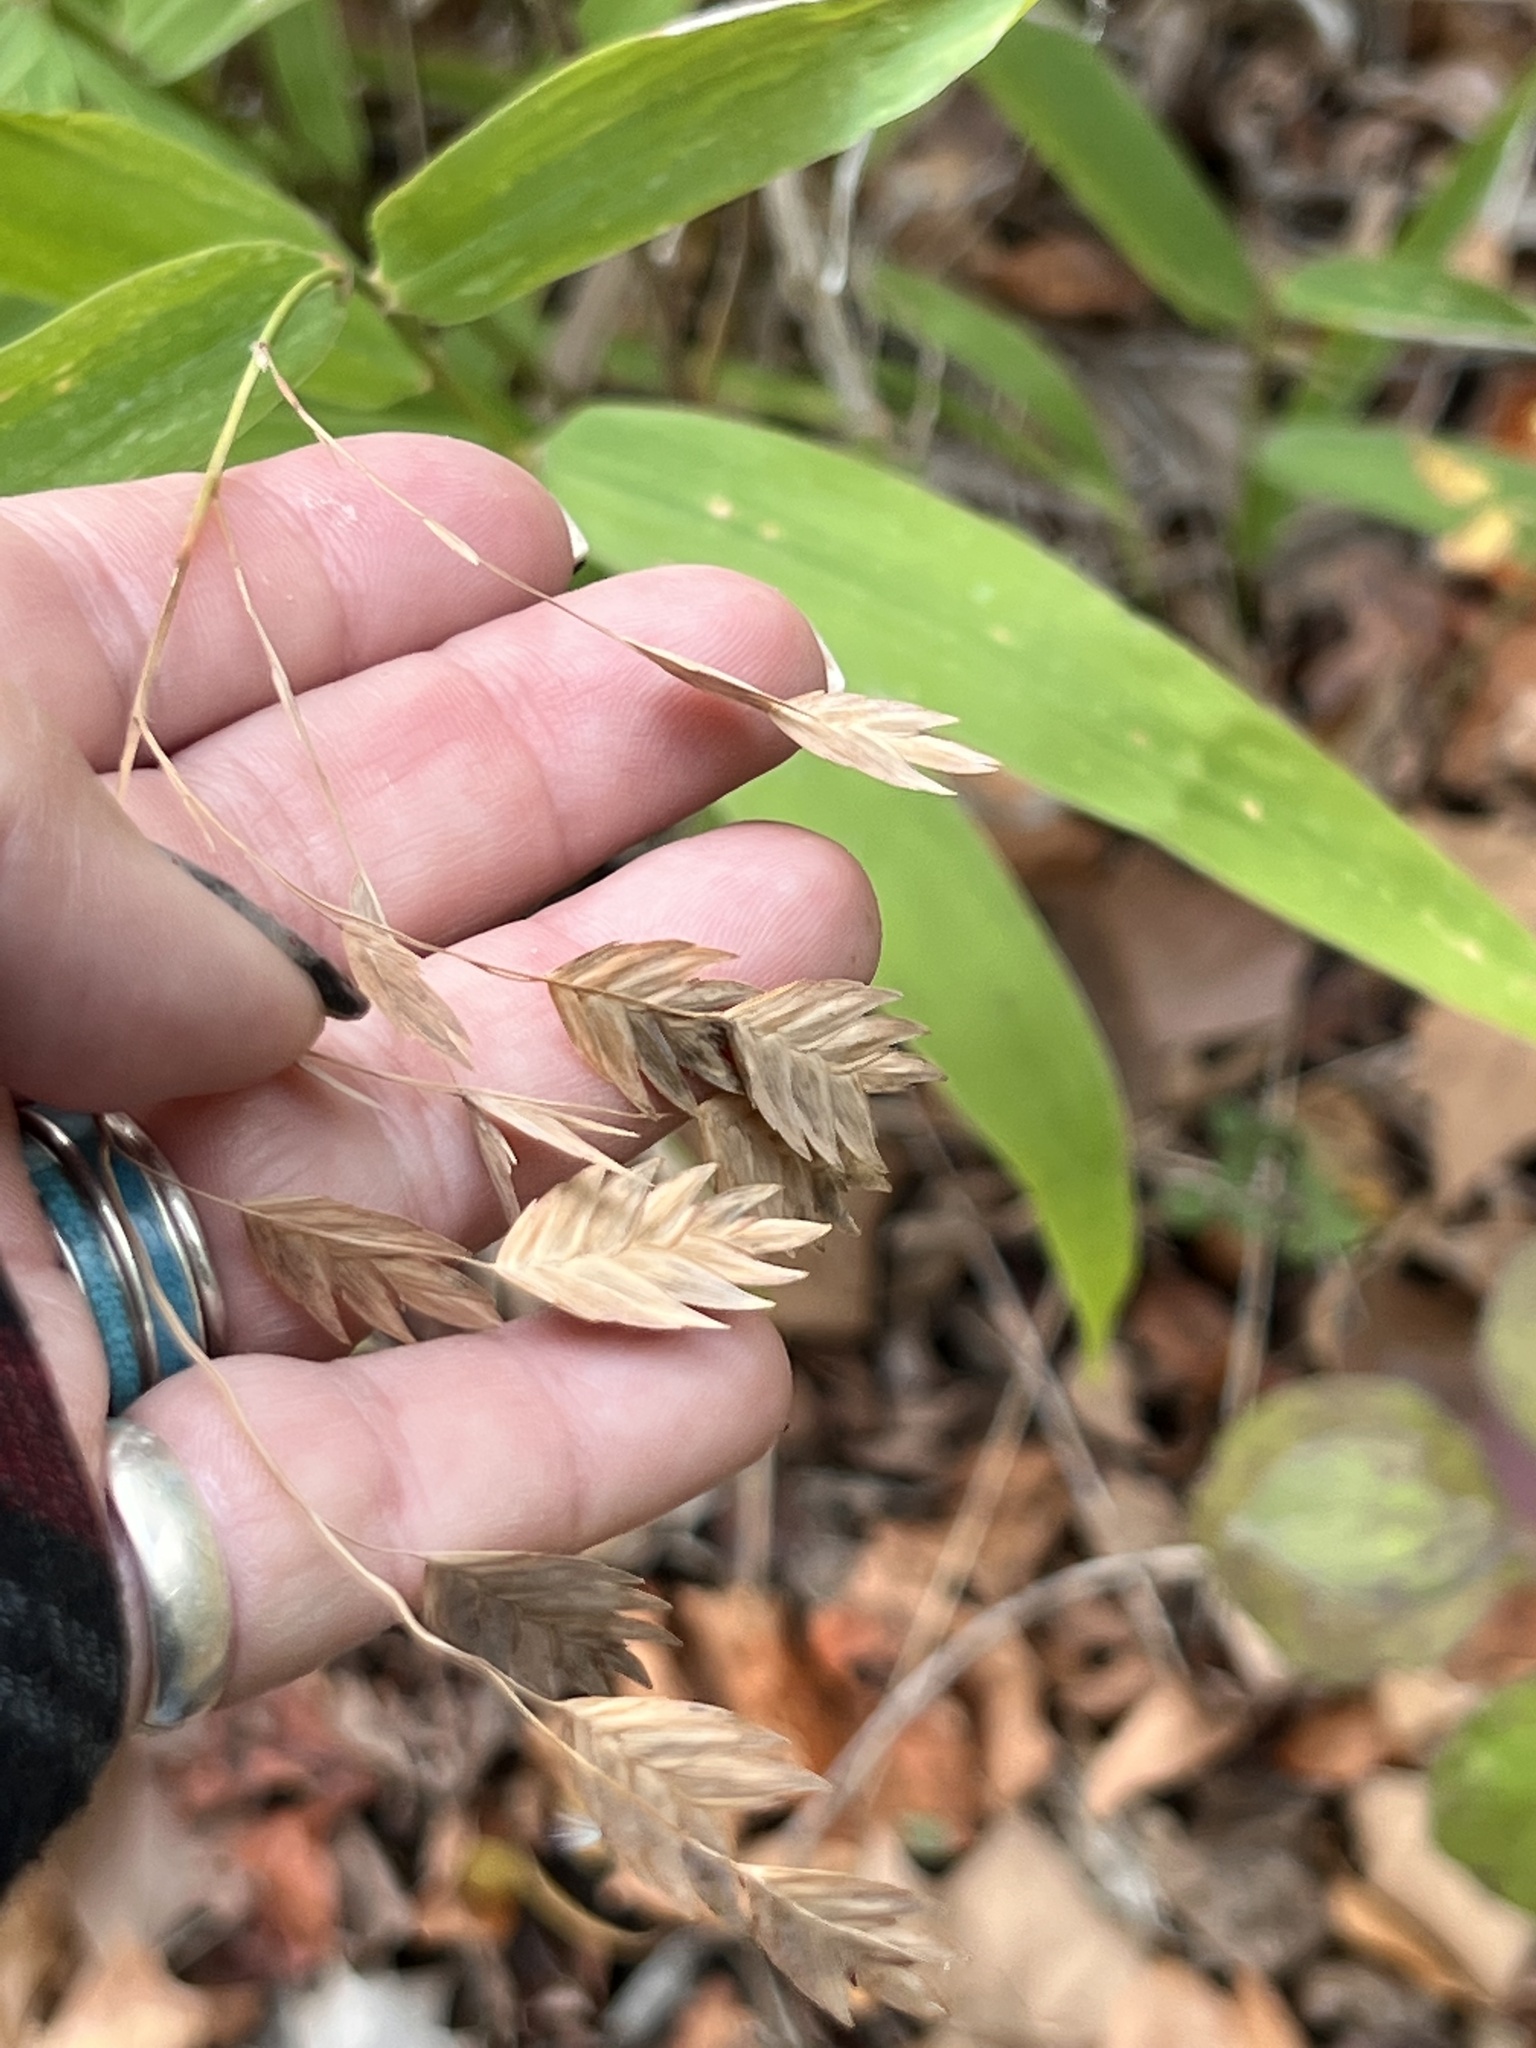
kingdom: Plantae
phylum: Tracheophyta
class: Liliopsida
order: Poales
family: Poaceae
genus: Chasmanthium
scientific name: Chasmanthium latifolium
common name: Broad-leaved chasmanthium
